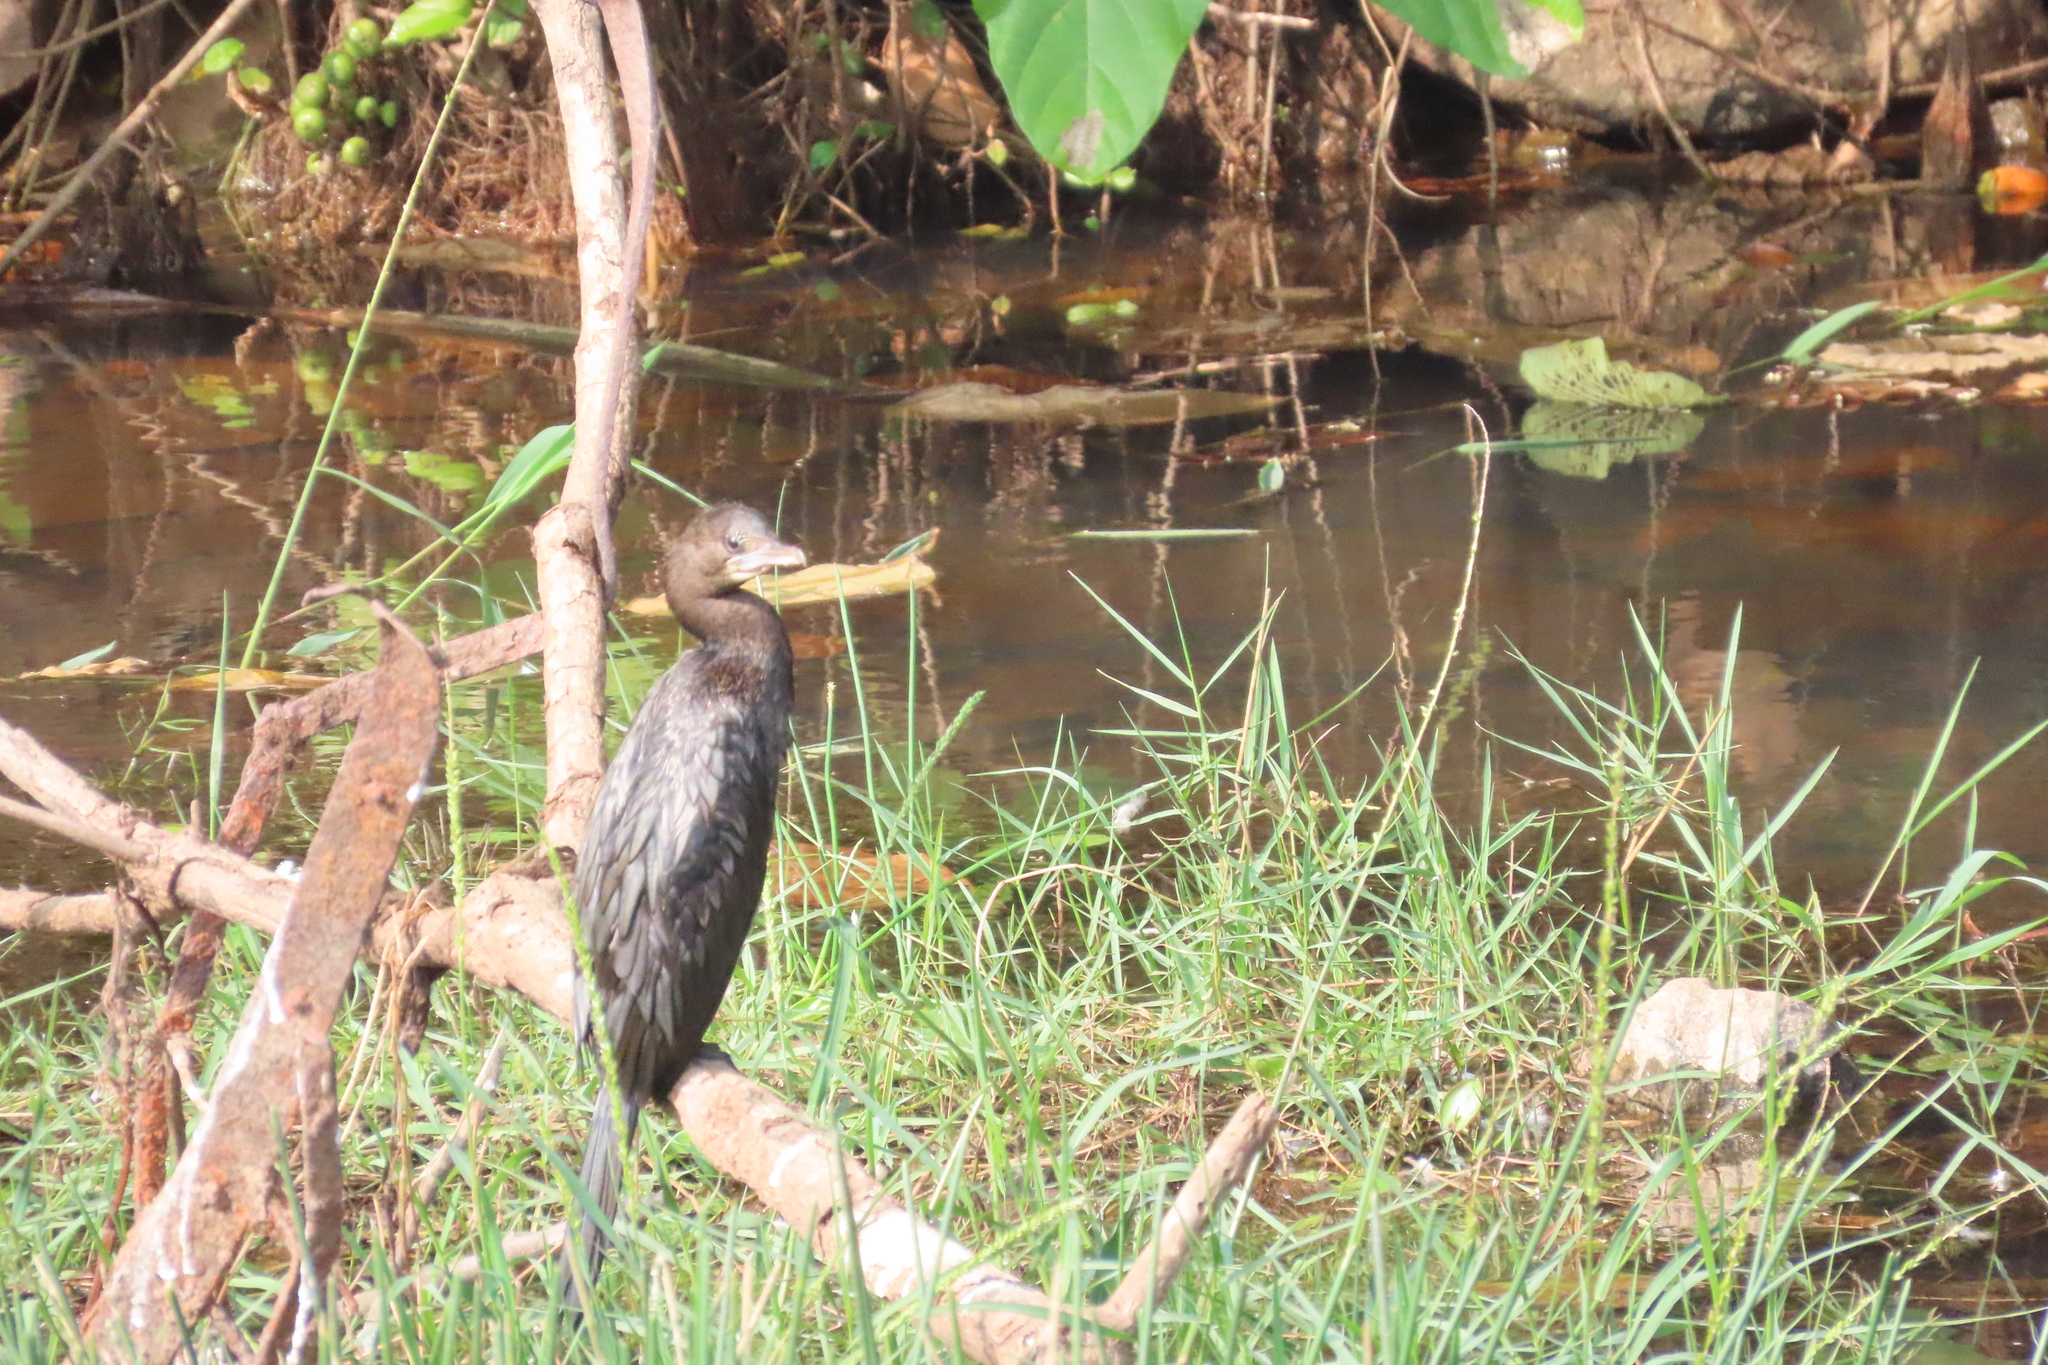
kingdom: Animalia
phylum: Chordata
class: Aves
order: Suliformes
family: Phalacrocoracidae
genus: Microcarbo
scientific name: Microcarbo niger
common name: Little cormorant
